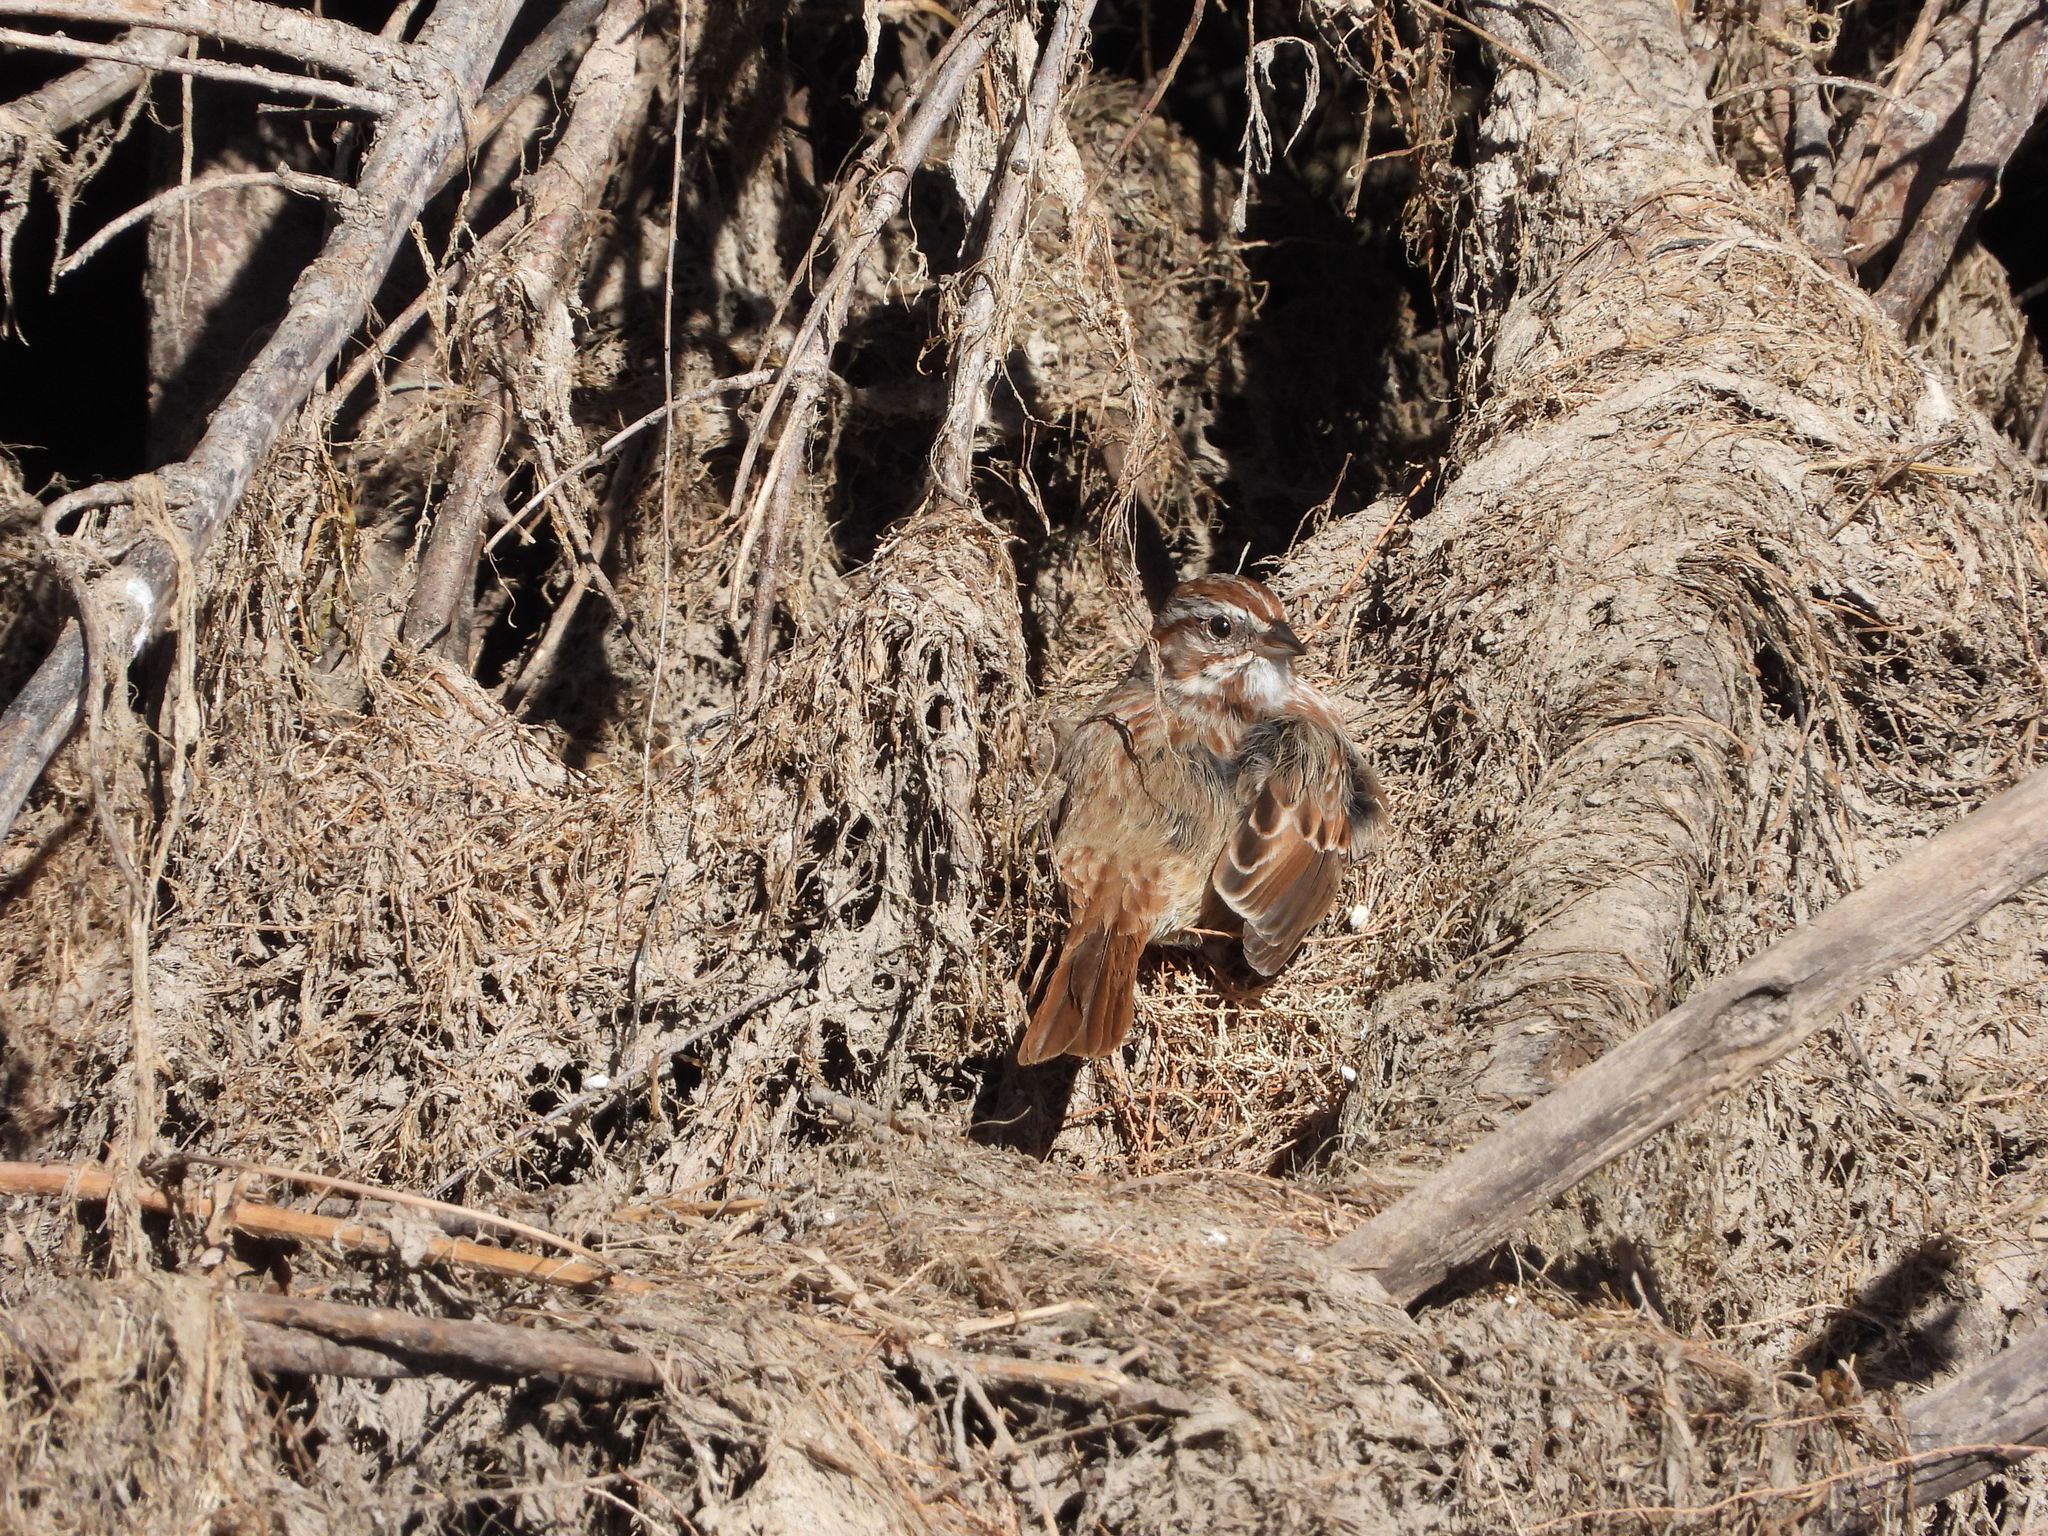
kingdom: Animalia
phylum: Chordata
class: Aves
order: Passeriformes
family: Passerellidae
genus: Melospiza
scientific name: Melospiza melodia
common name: Song sparrow
